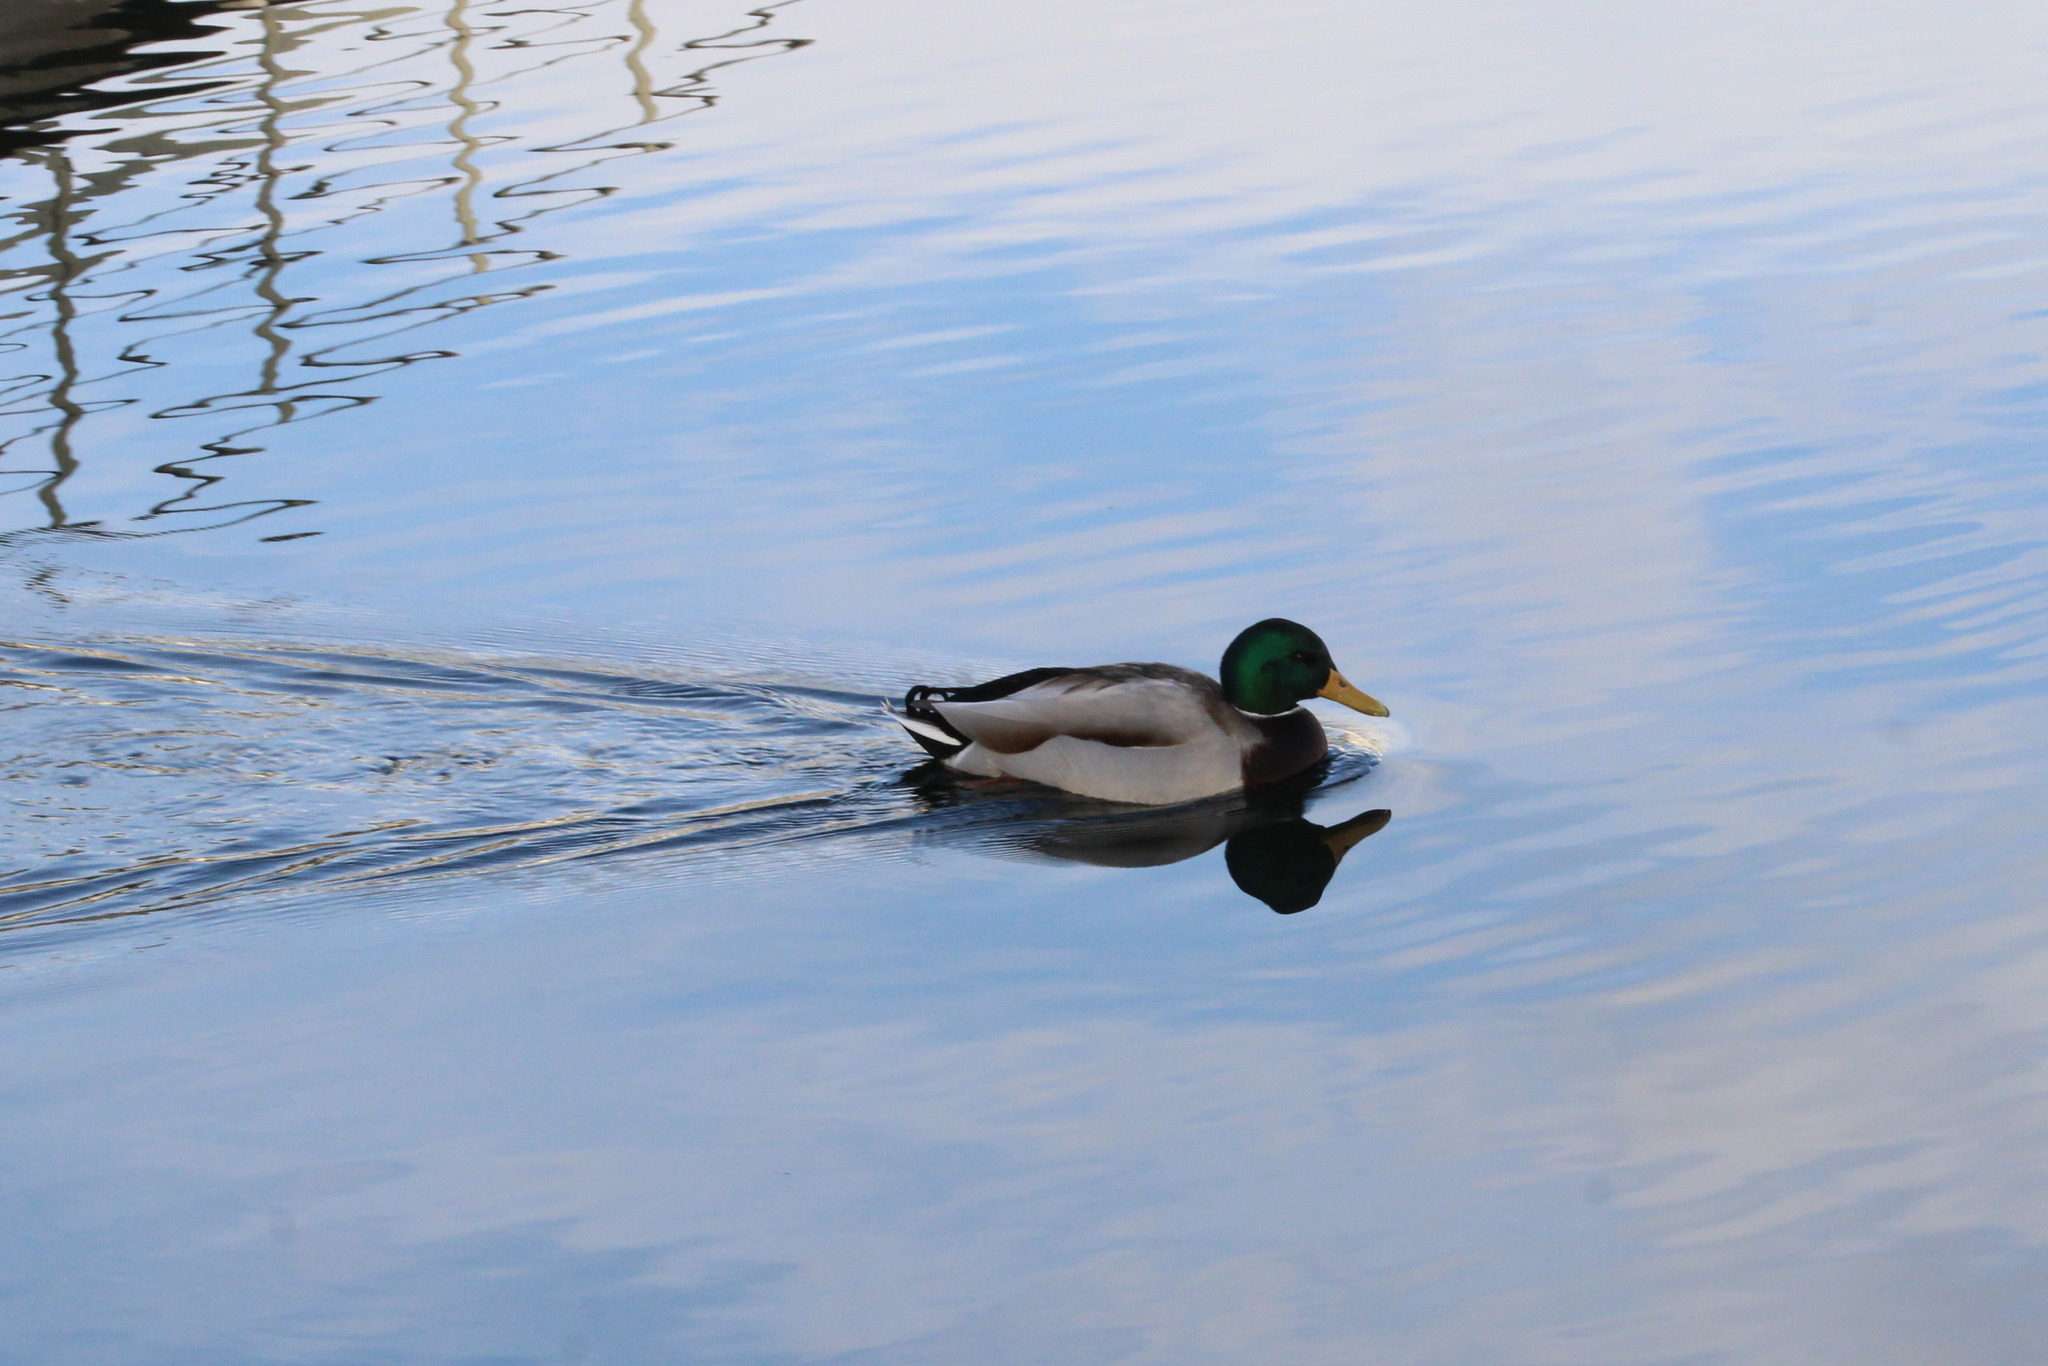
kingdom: Animalia
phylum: Chordata
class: Aves
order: Anseriformes
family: Anatidae
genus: Anas
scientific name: Anas platyrhynchos
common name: Mallard
